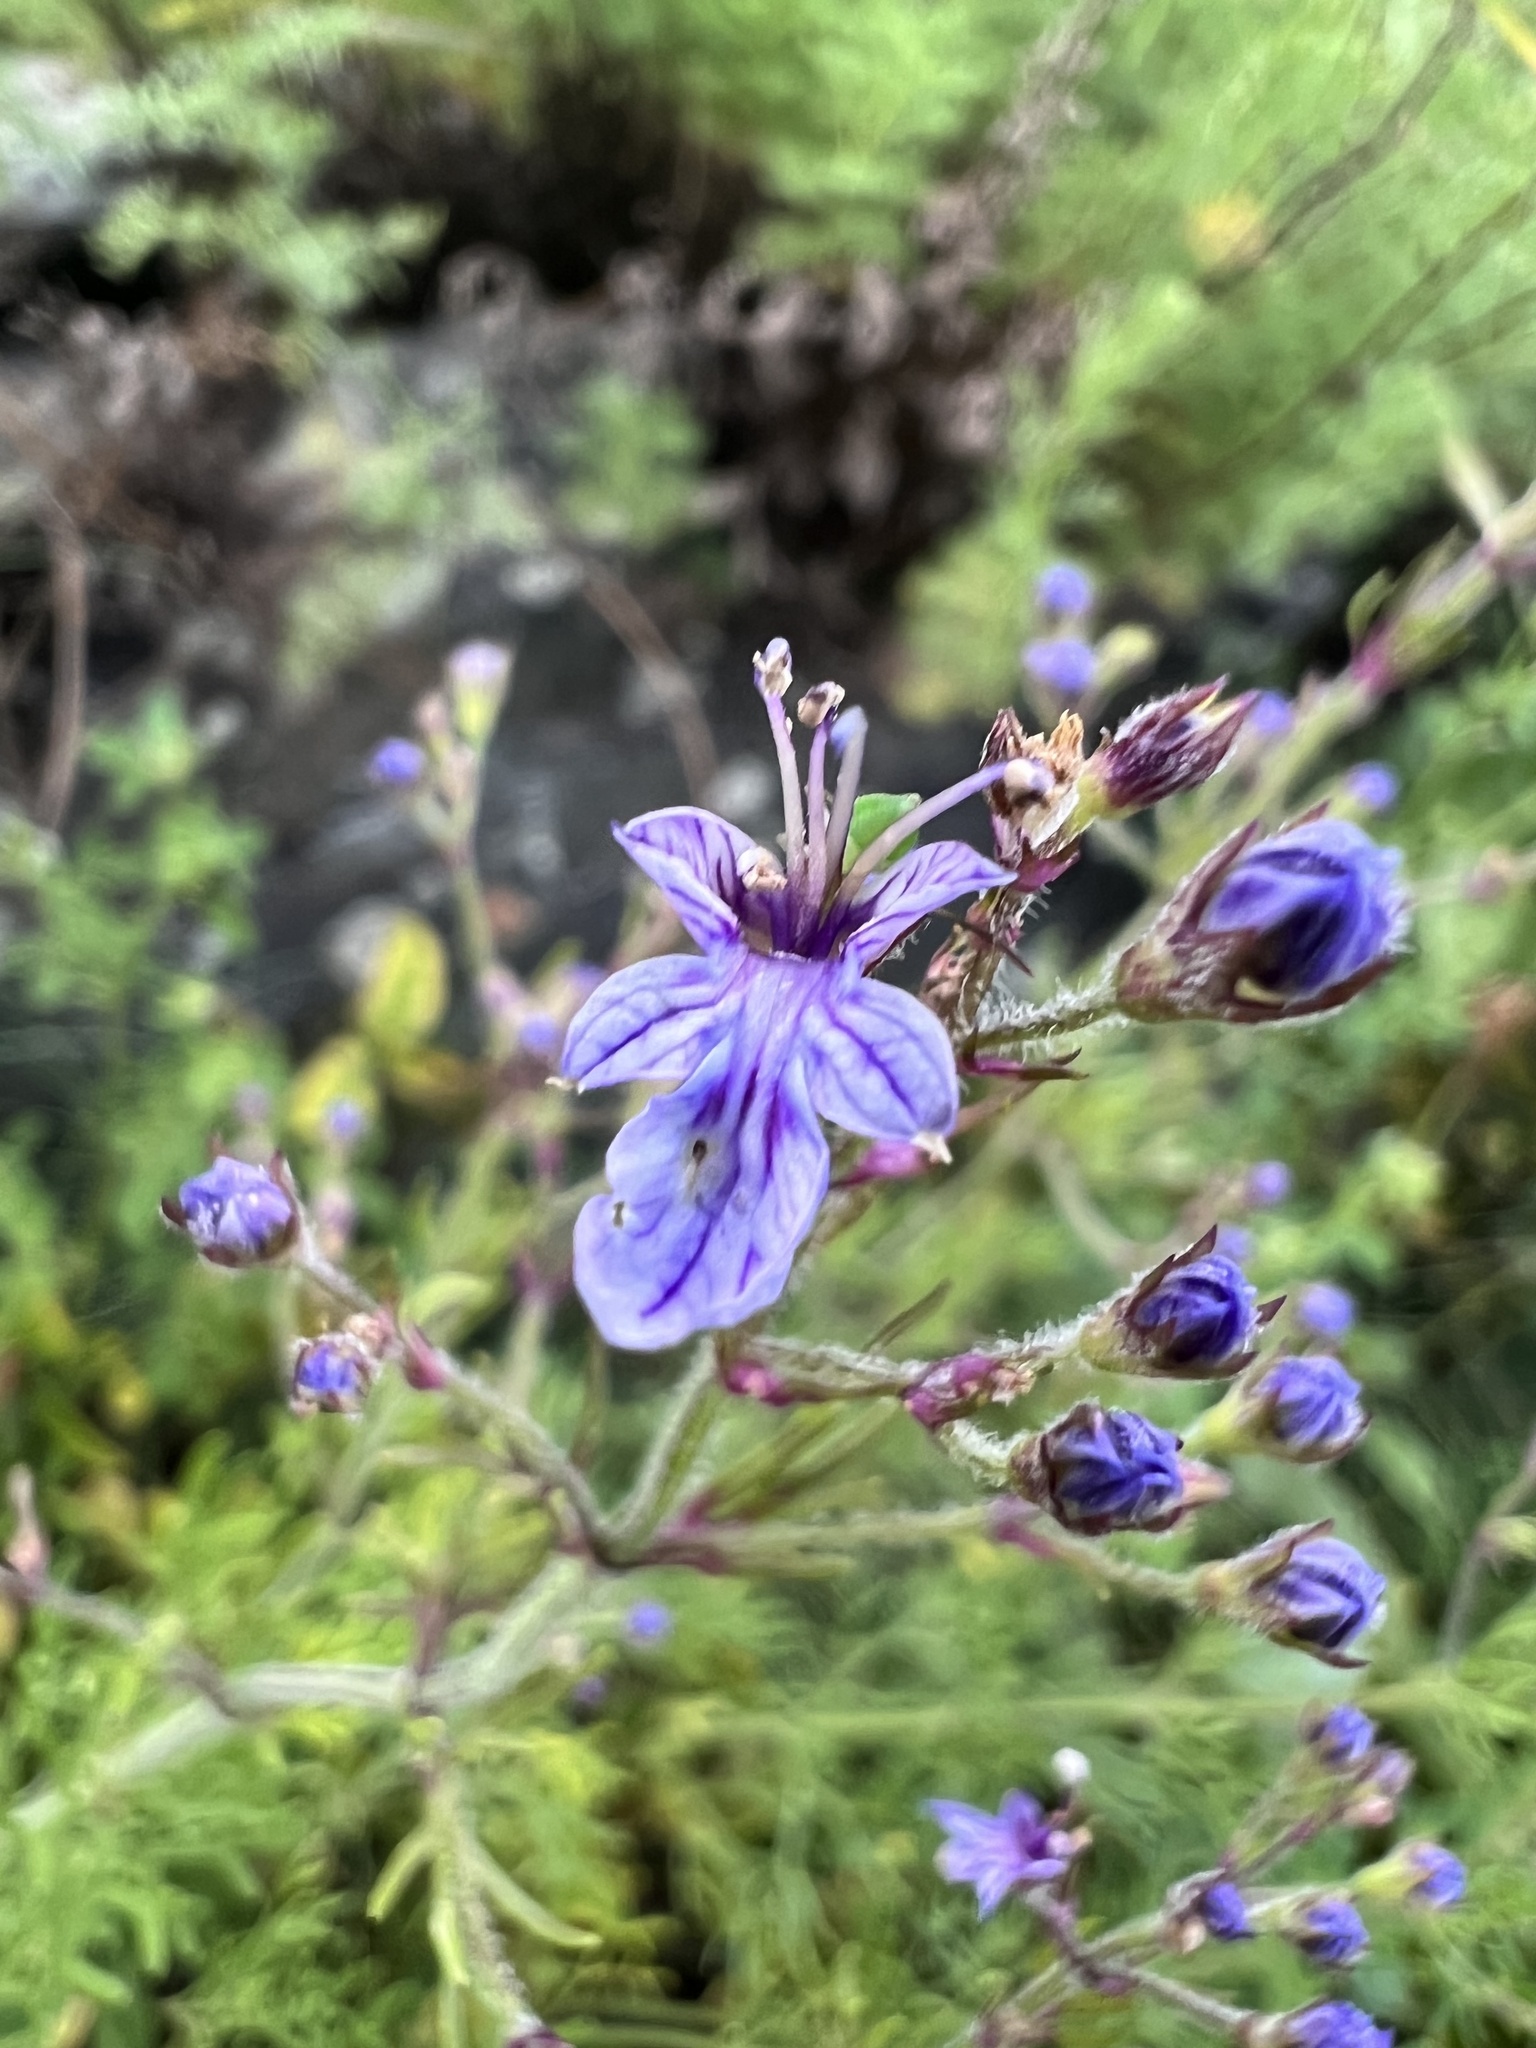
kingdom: Plantae
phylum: Tracheophyta
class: Magnoliopsida
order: Lamiales
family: Lamiaceae
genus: Teucrium
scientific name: Teucrium orientale
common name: Oriental germander
